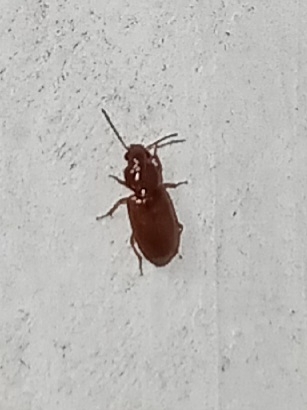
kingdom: Animalia
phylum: Arthropoda
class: Insecta
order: Coleoptera
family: Carabidae
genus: Acupalpus
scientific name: Acupalpus testaceus
